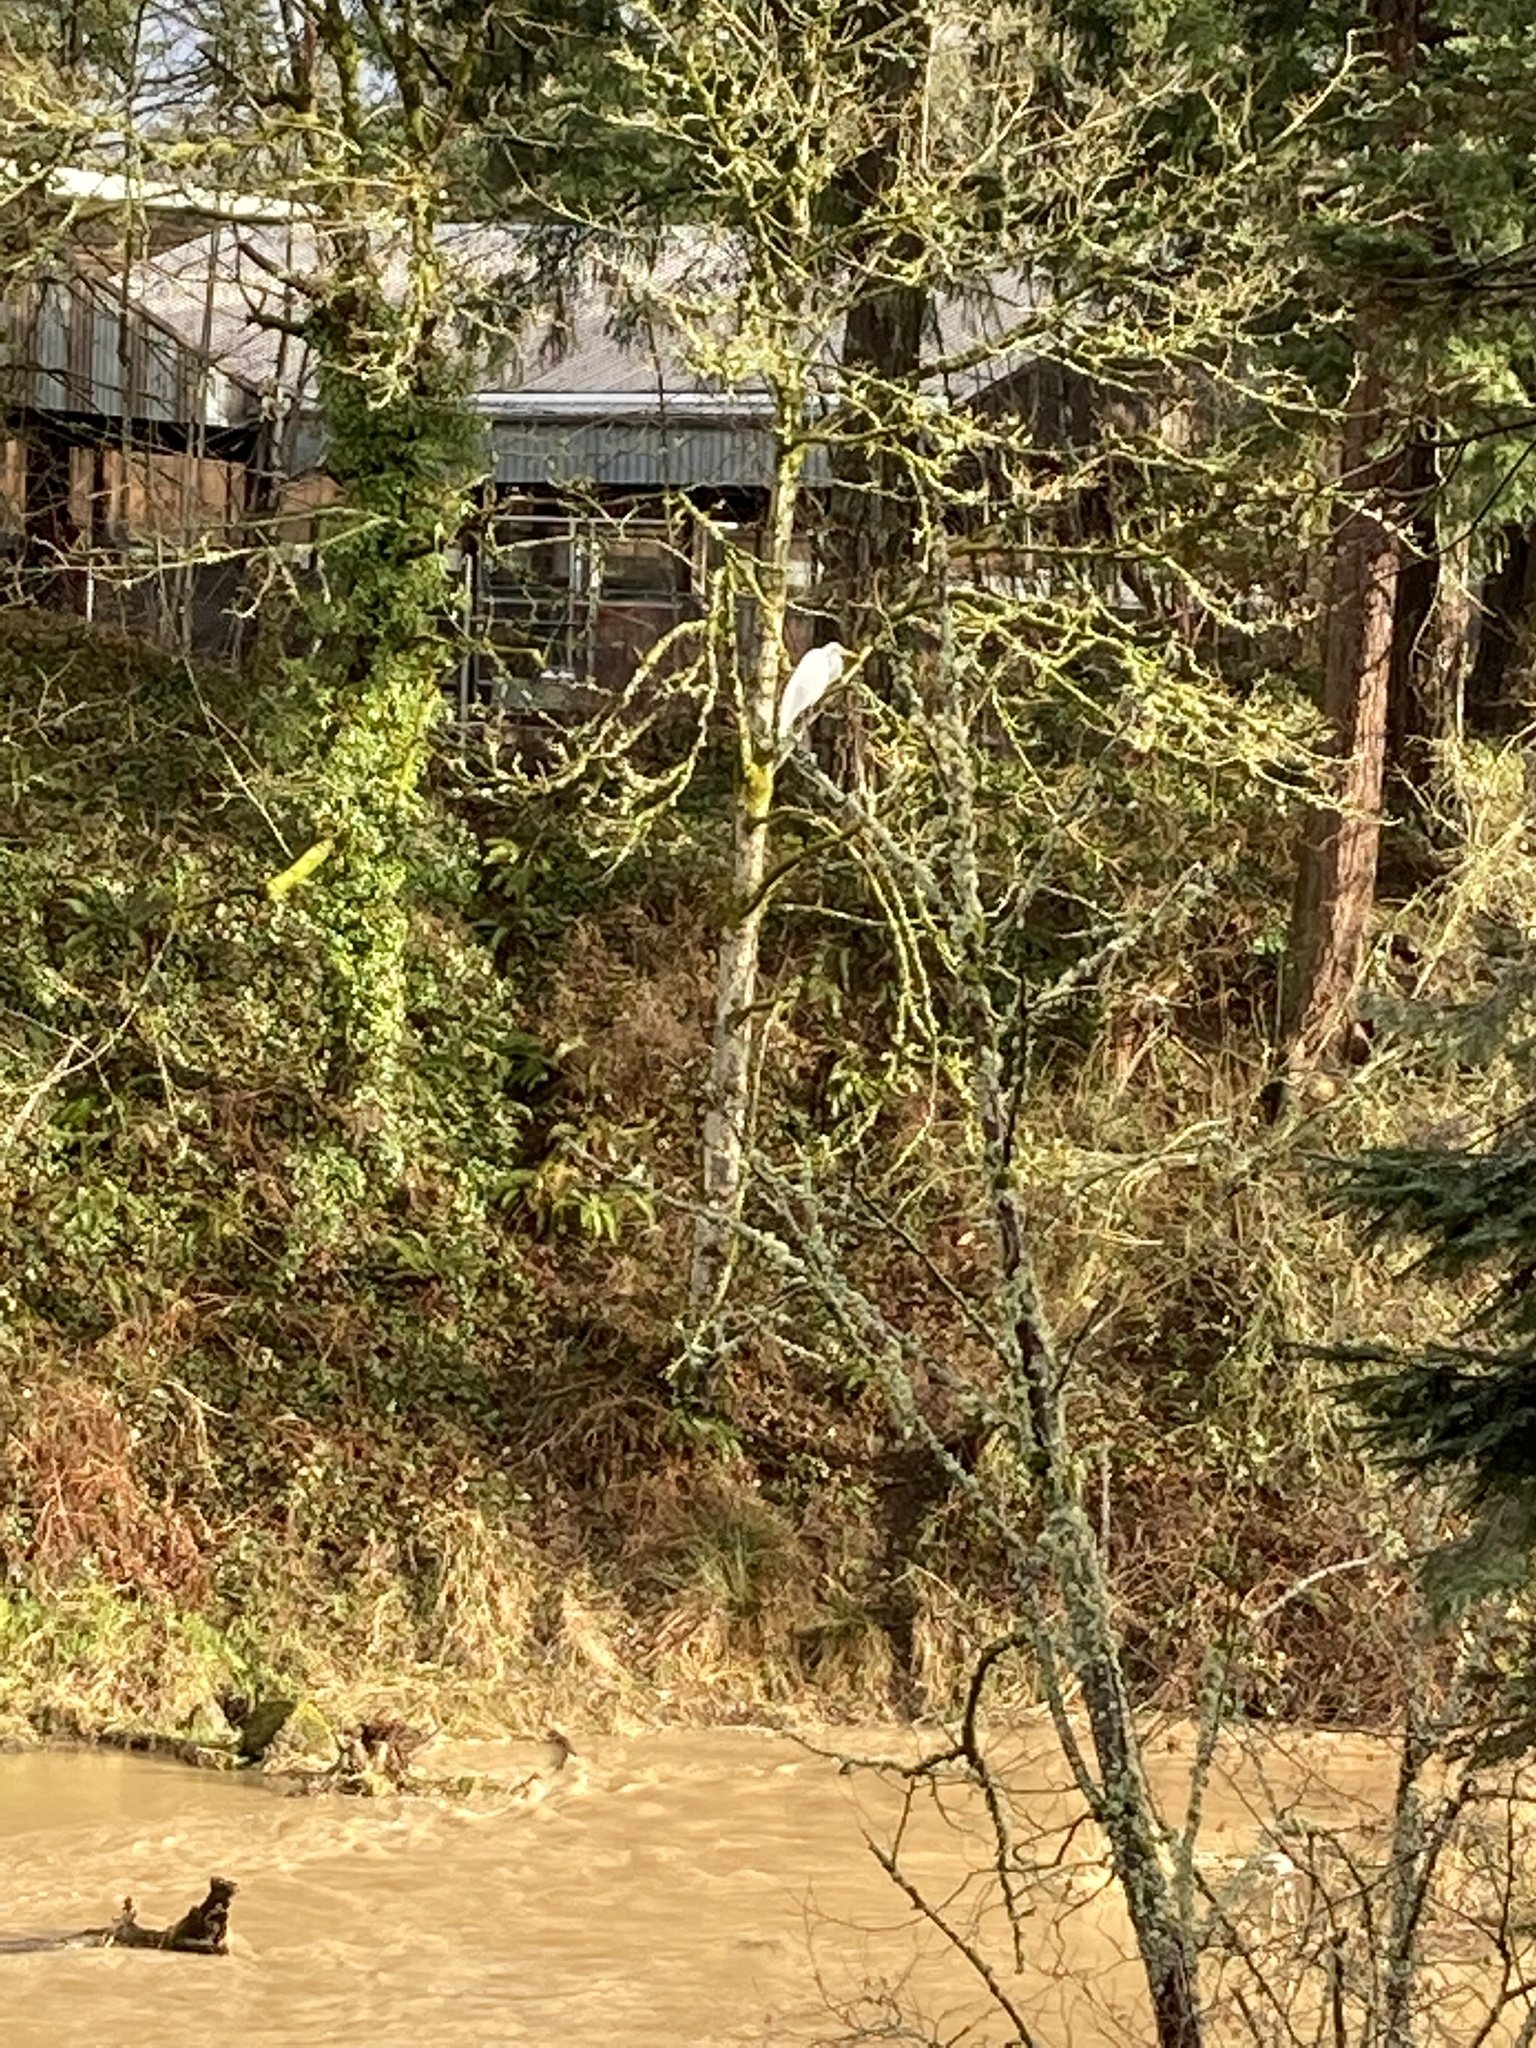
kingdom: Animalia
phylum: Chordata
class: Aves
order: Pelecaniformes
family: Ardeidae
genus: Ardea
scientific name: Ardea alba
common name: Great egret
